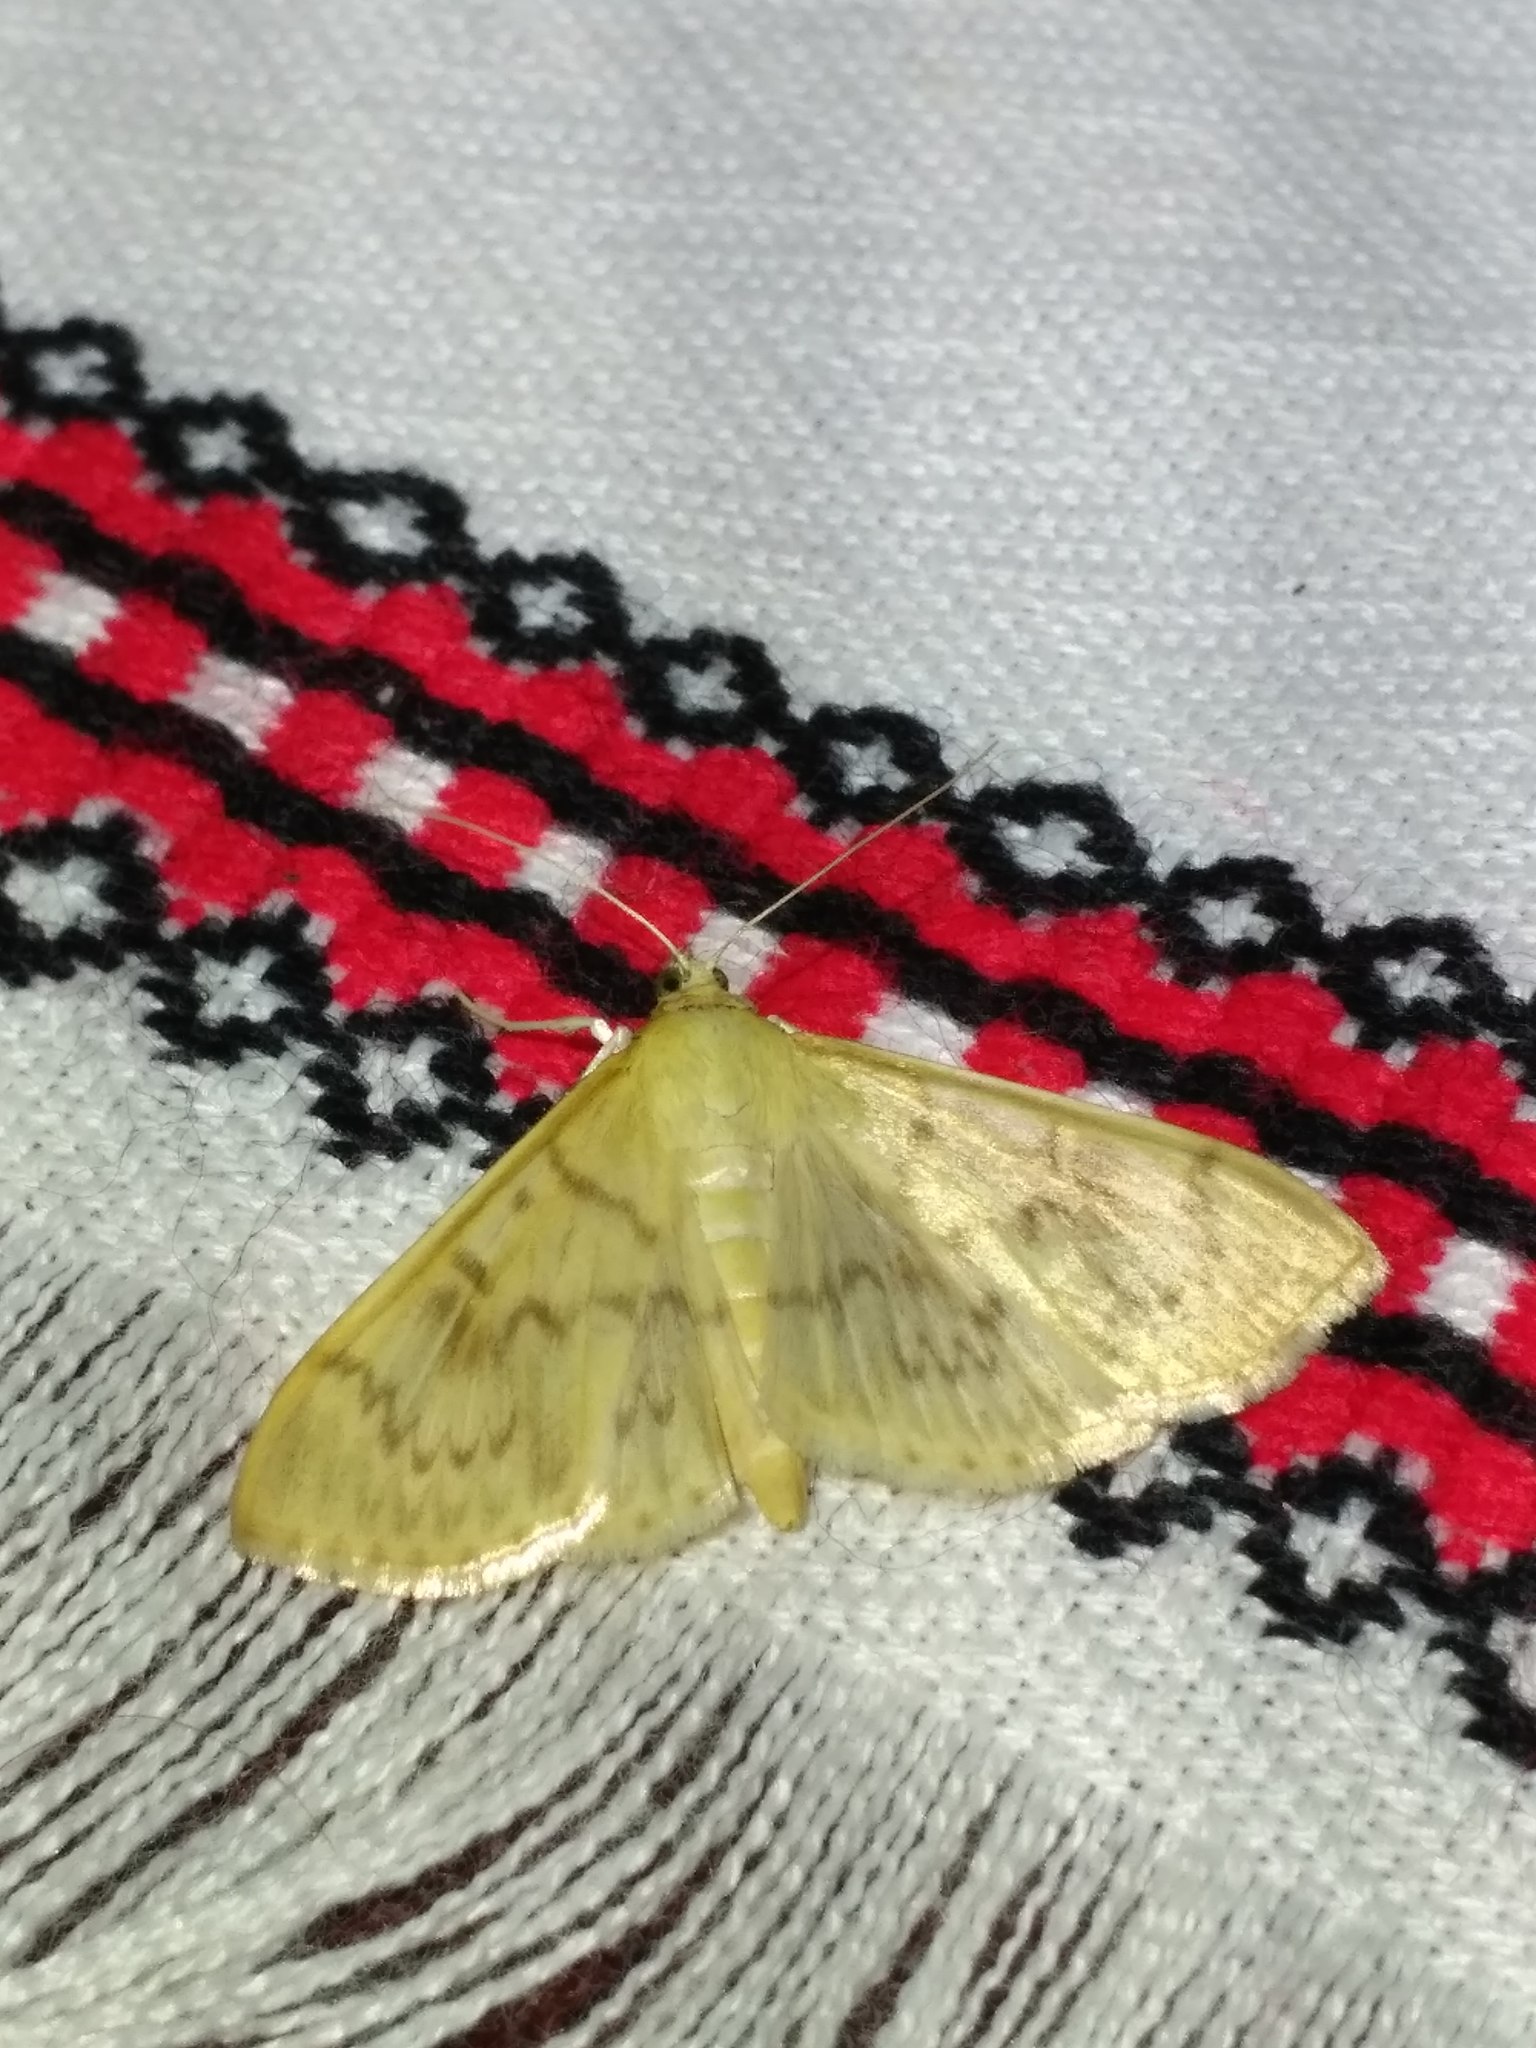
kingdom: Animalia
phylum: Arthropoda
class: Insecta
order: Lepidoptera
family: Crambidae
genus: Patania
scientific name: Patania ruralis
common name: Mother of pearl
